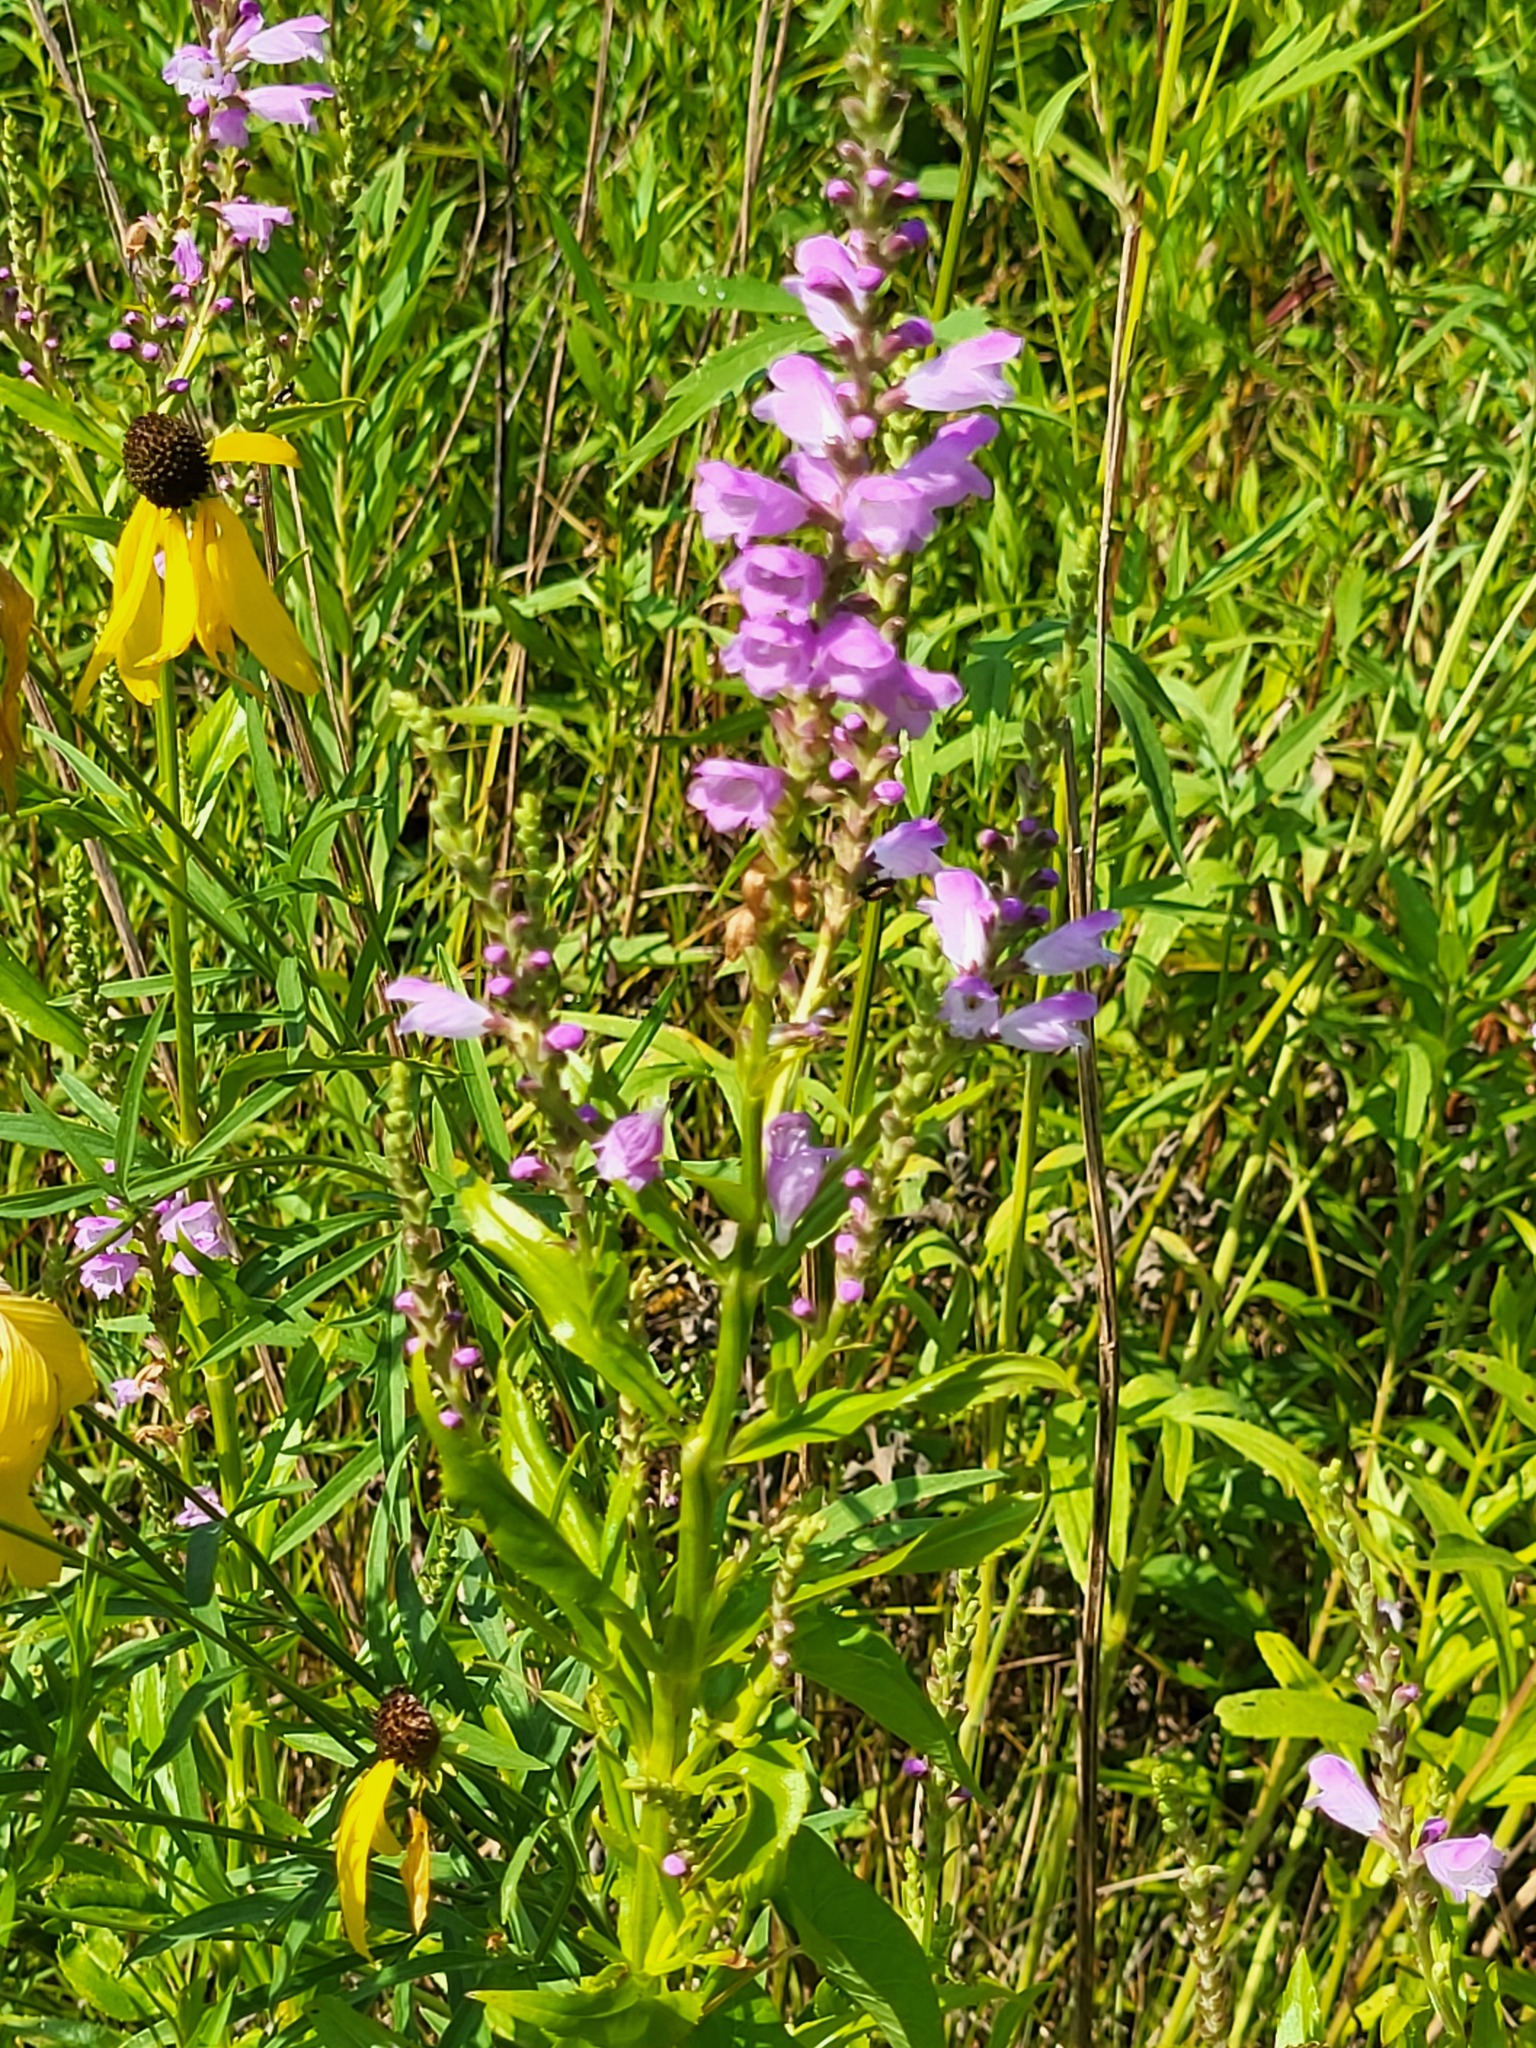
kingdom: Plantae
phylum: Tracheophyta
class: Magnoliopsida
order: Lamiales
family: Lamiaceae
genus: Physostegia
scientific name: Physostegia virginiana
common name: Obedient-plant
